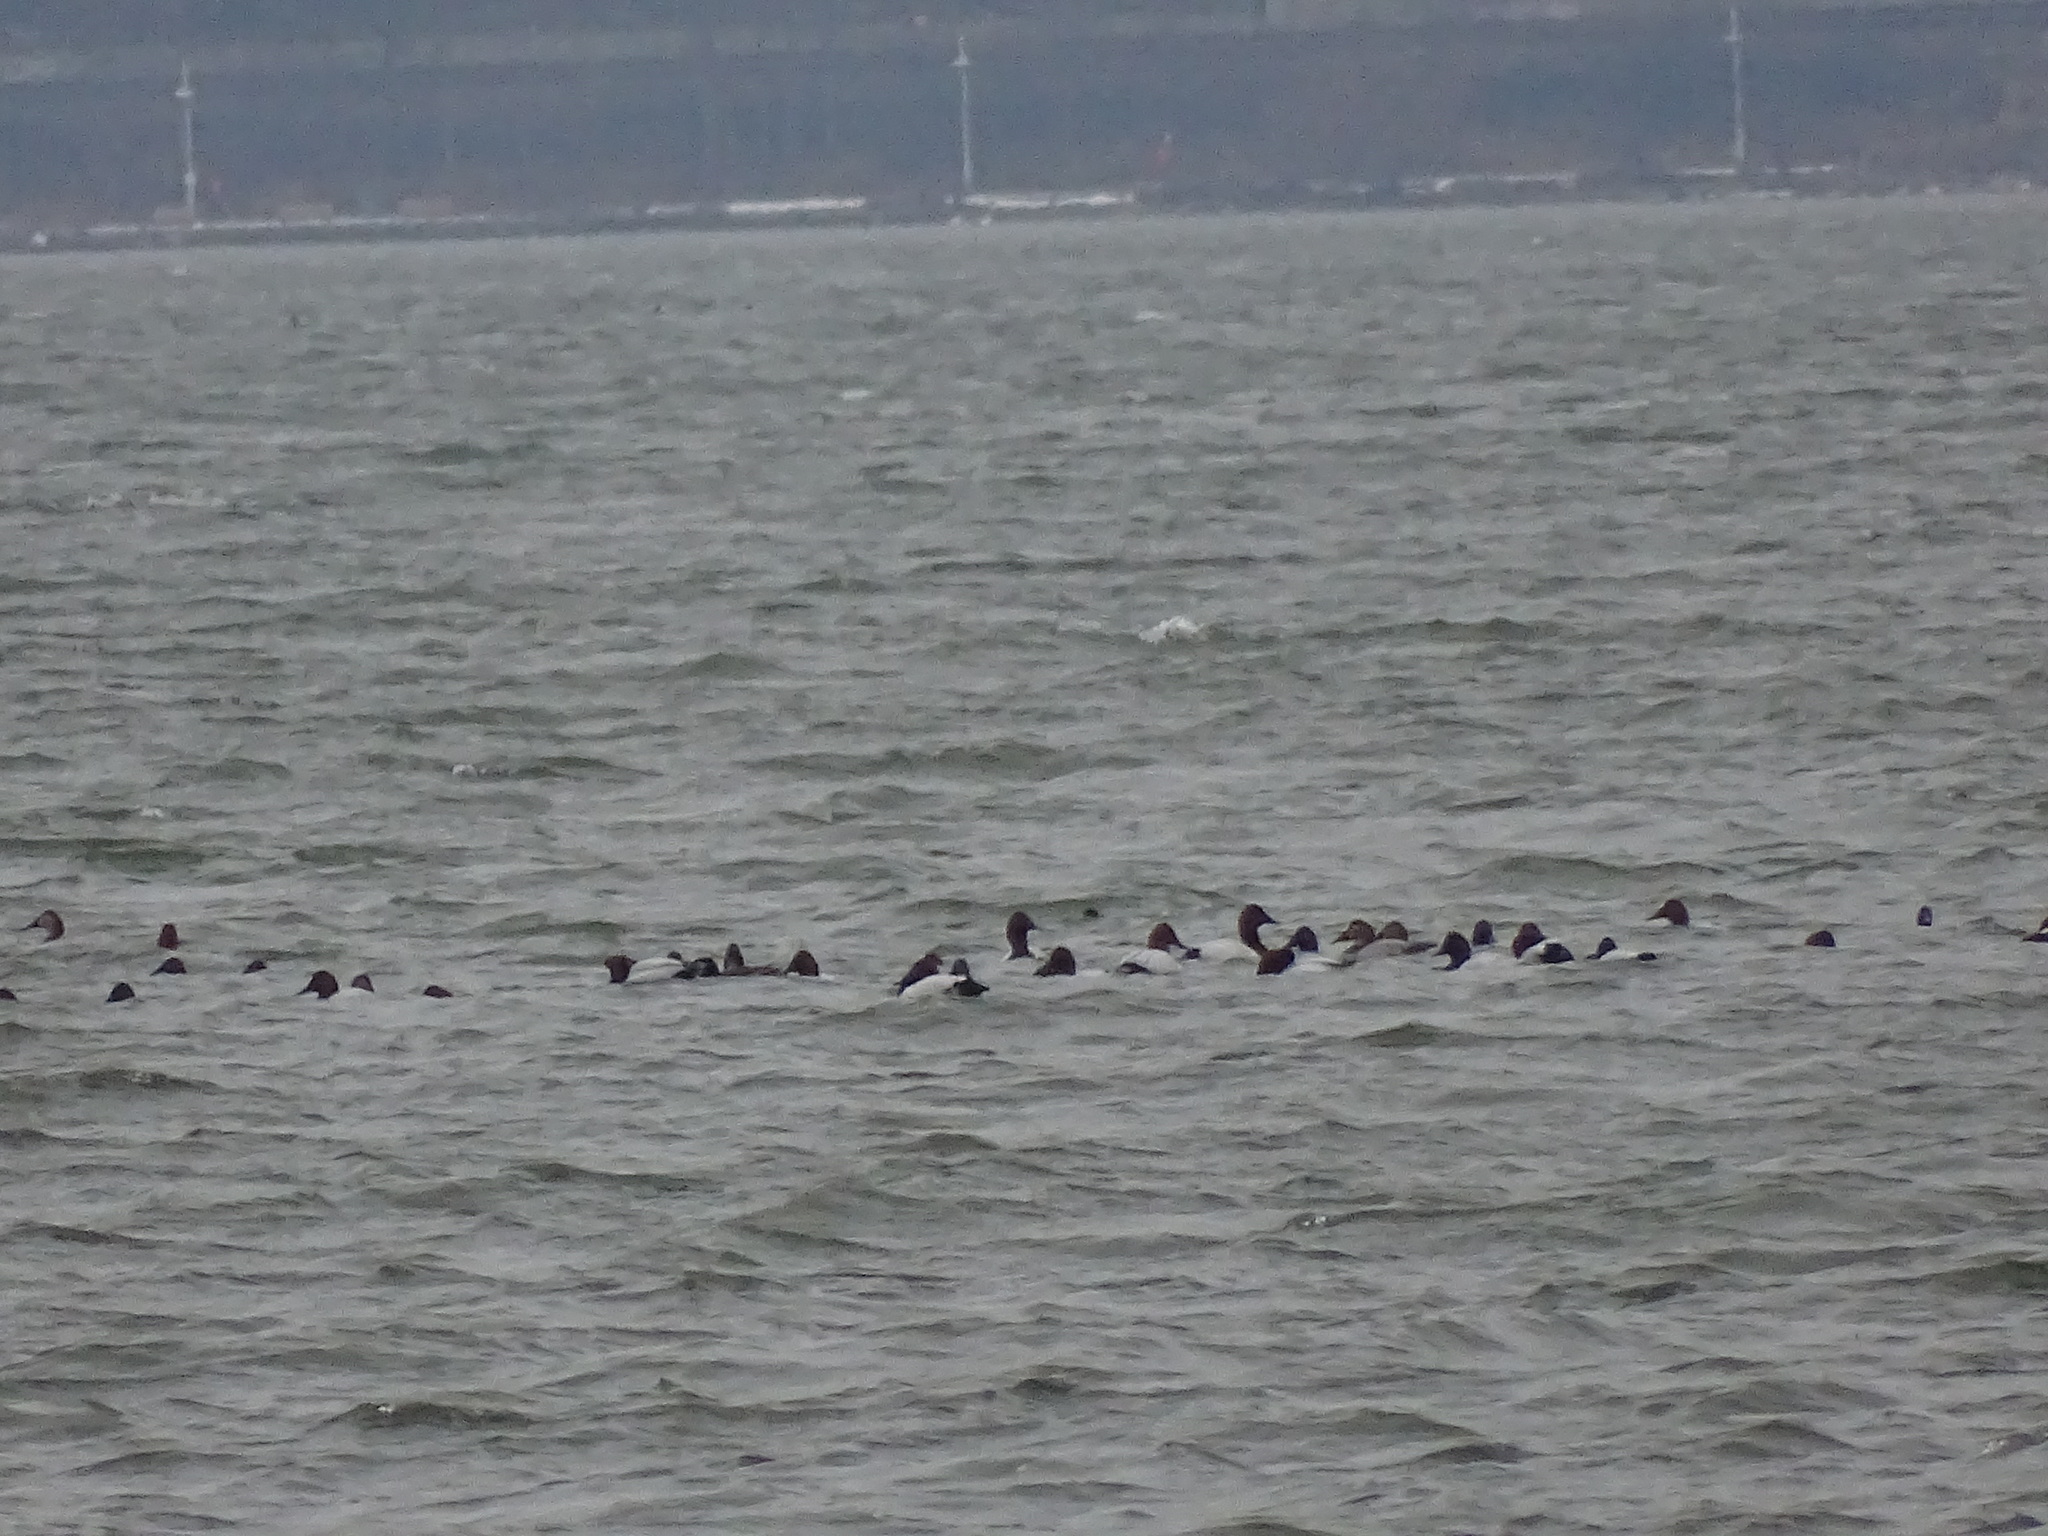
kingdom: Animalia
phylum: Chordata
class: Aves
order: Anseriformes
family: Anatidae
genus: Aythya
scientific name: Aythya valisineria
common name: Canvasback
